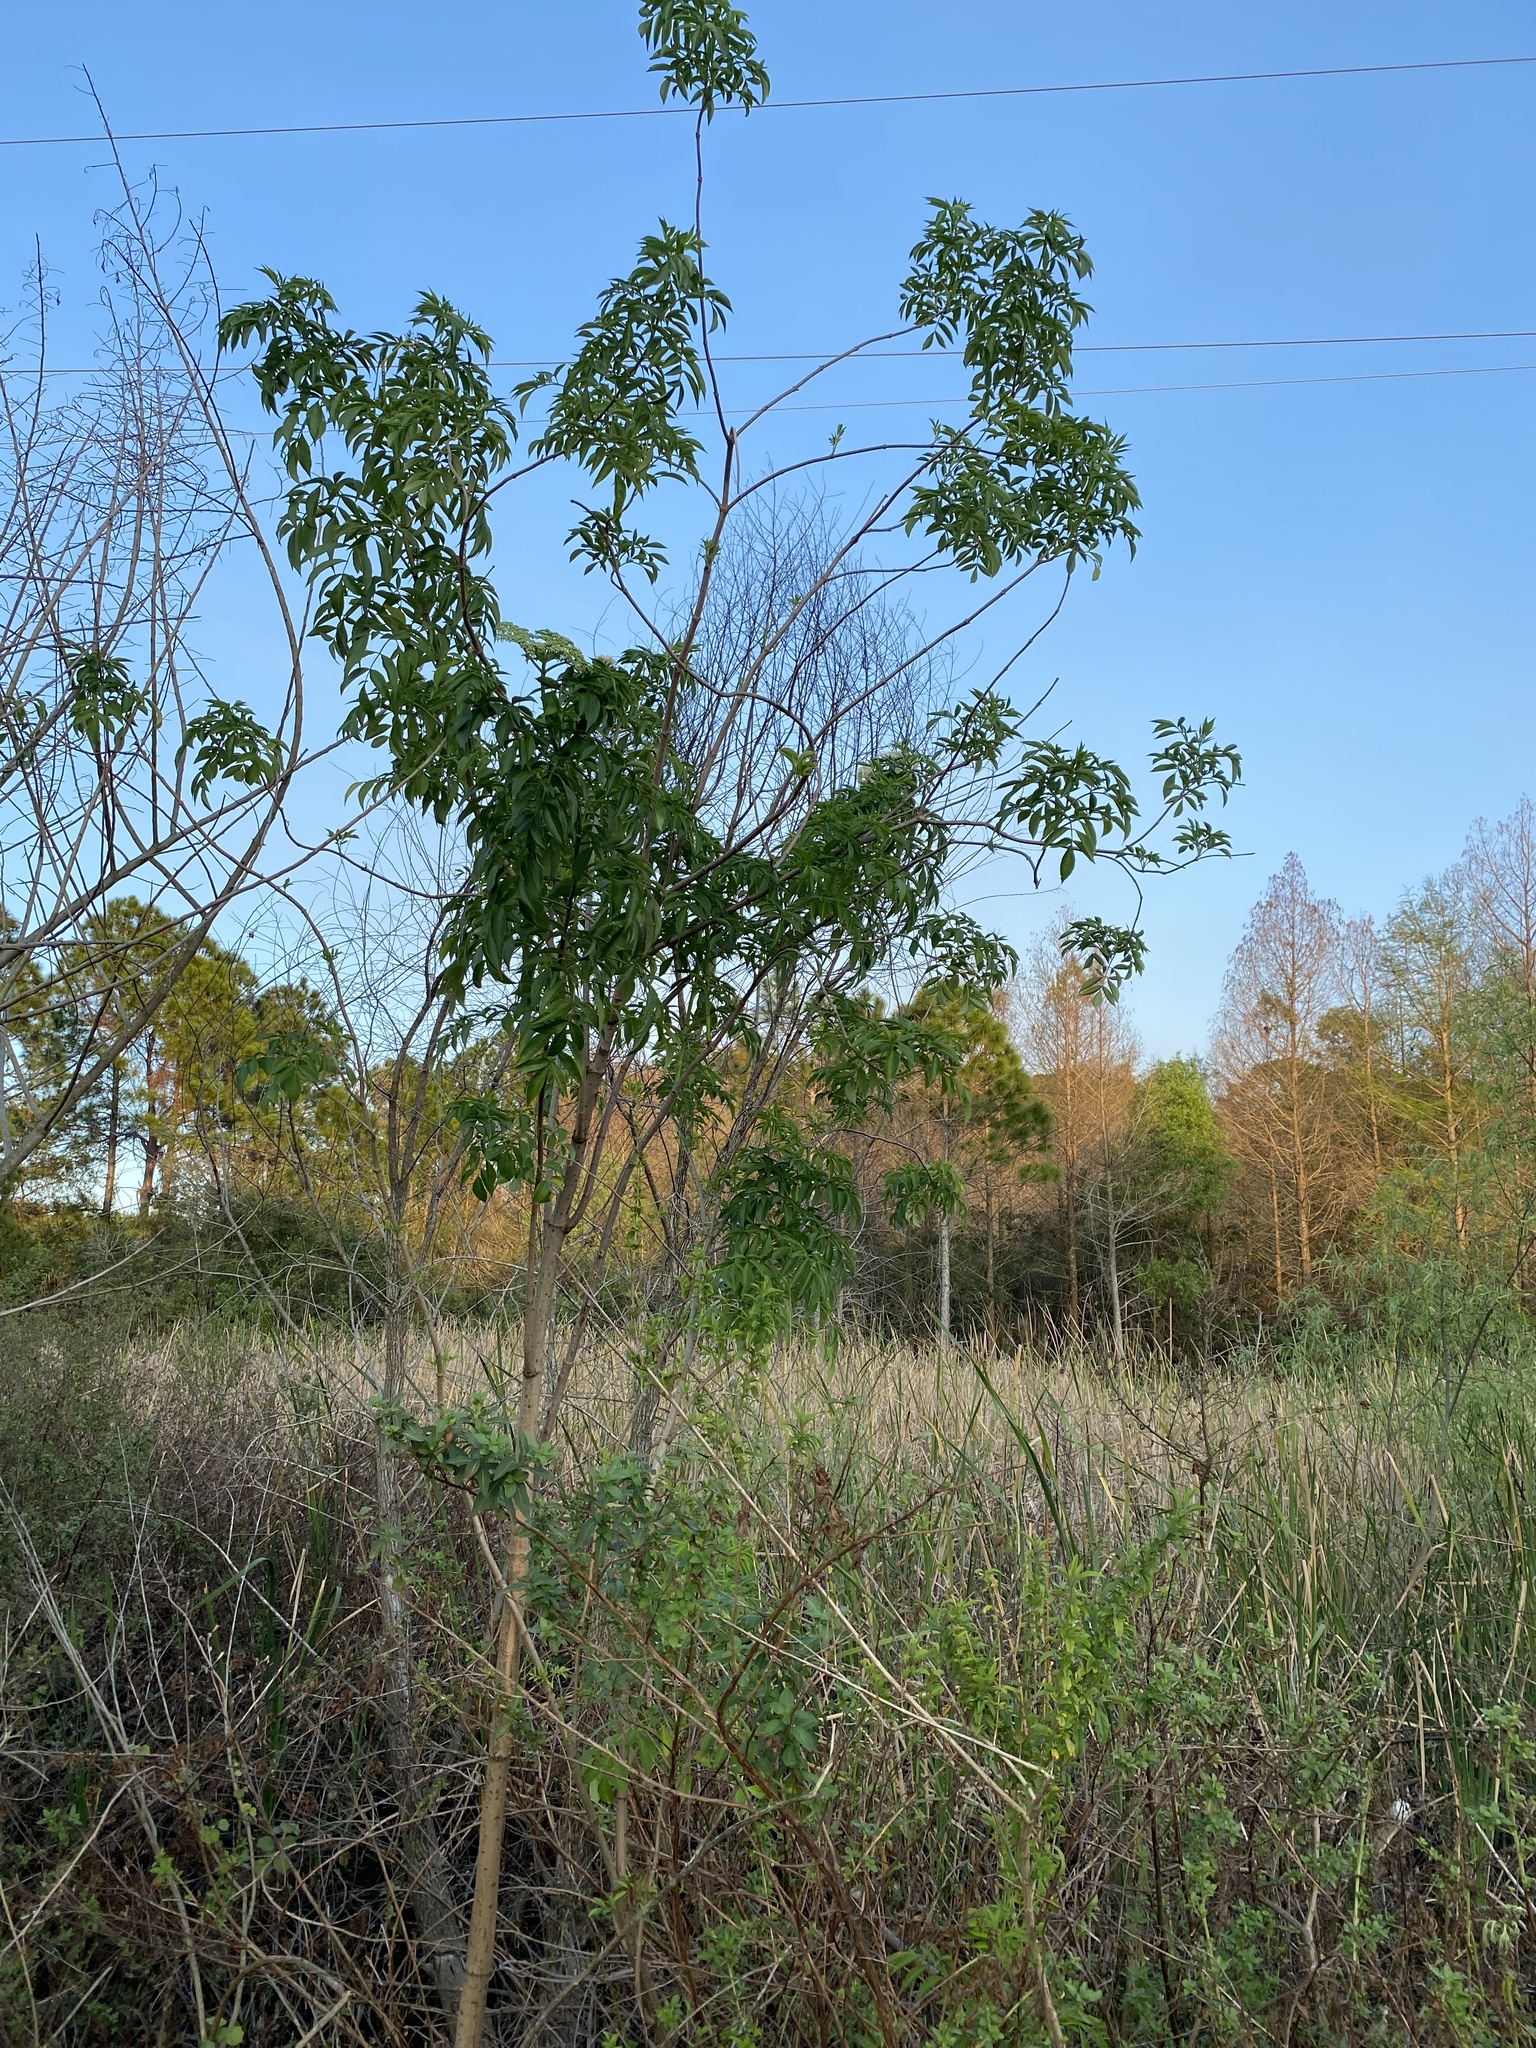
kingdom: Plantae
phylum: Tracheophyta
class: Magnoliopsida
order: Dipsacales
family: Viburnaceae
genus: Sambucus
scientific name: Sambucus canadensis
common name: American elder
